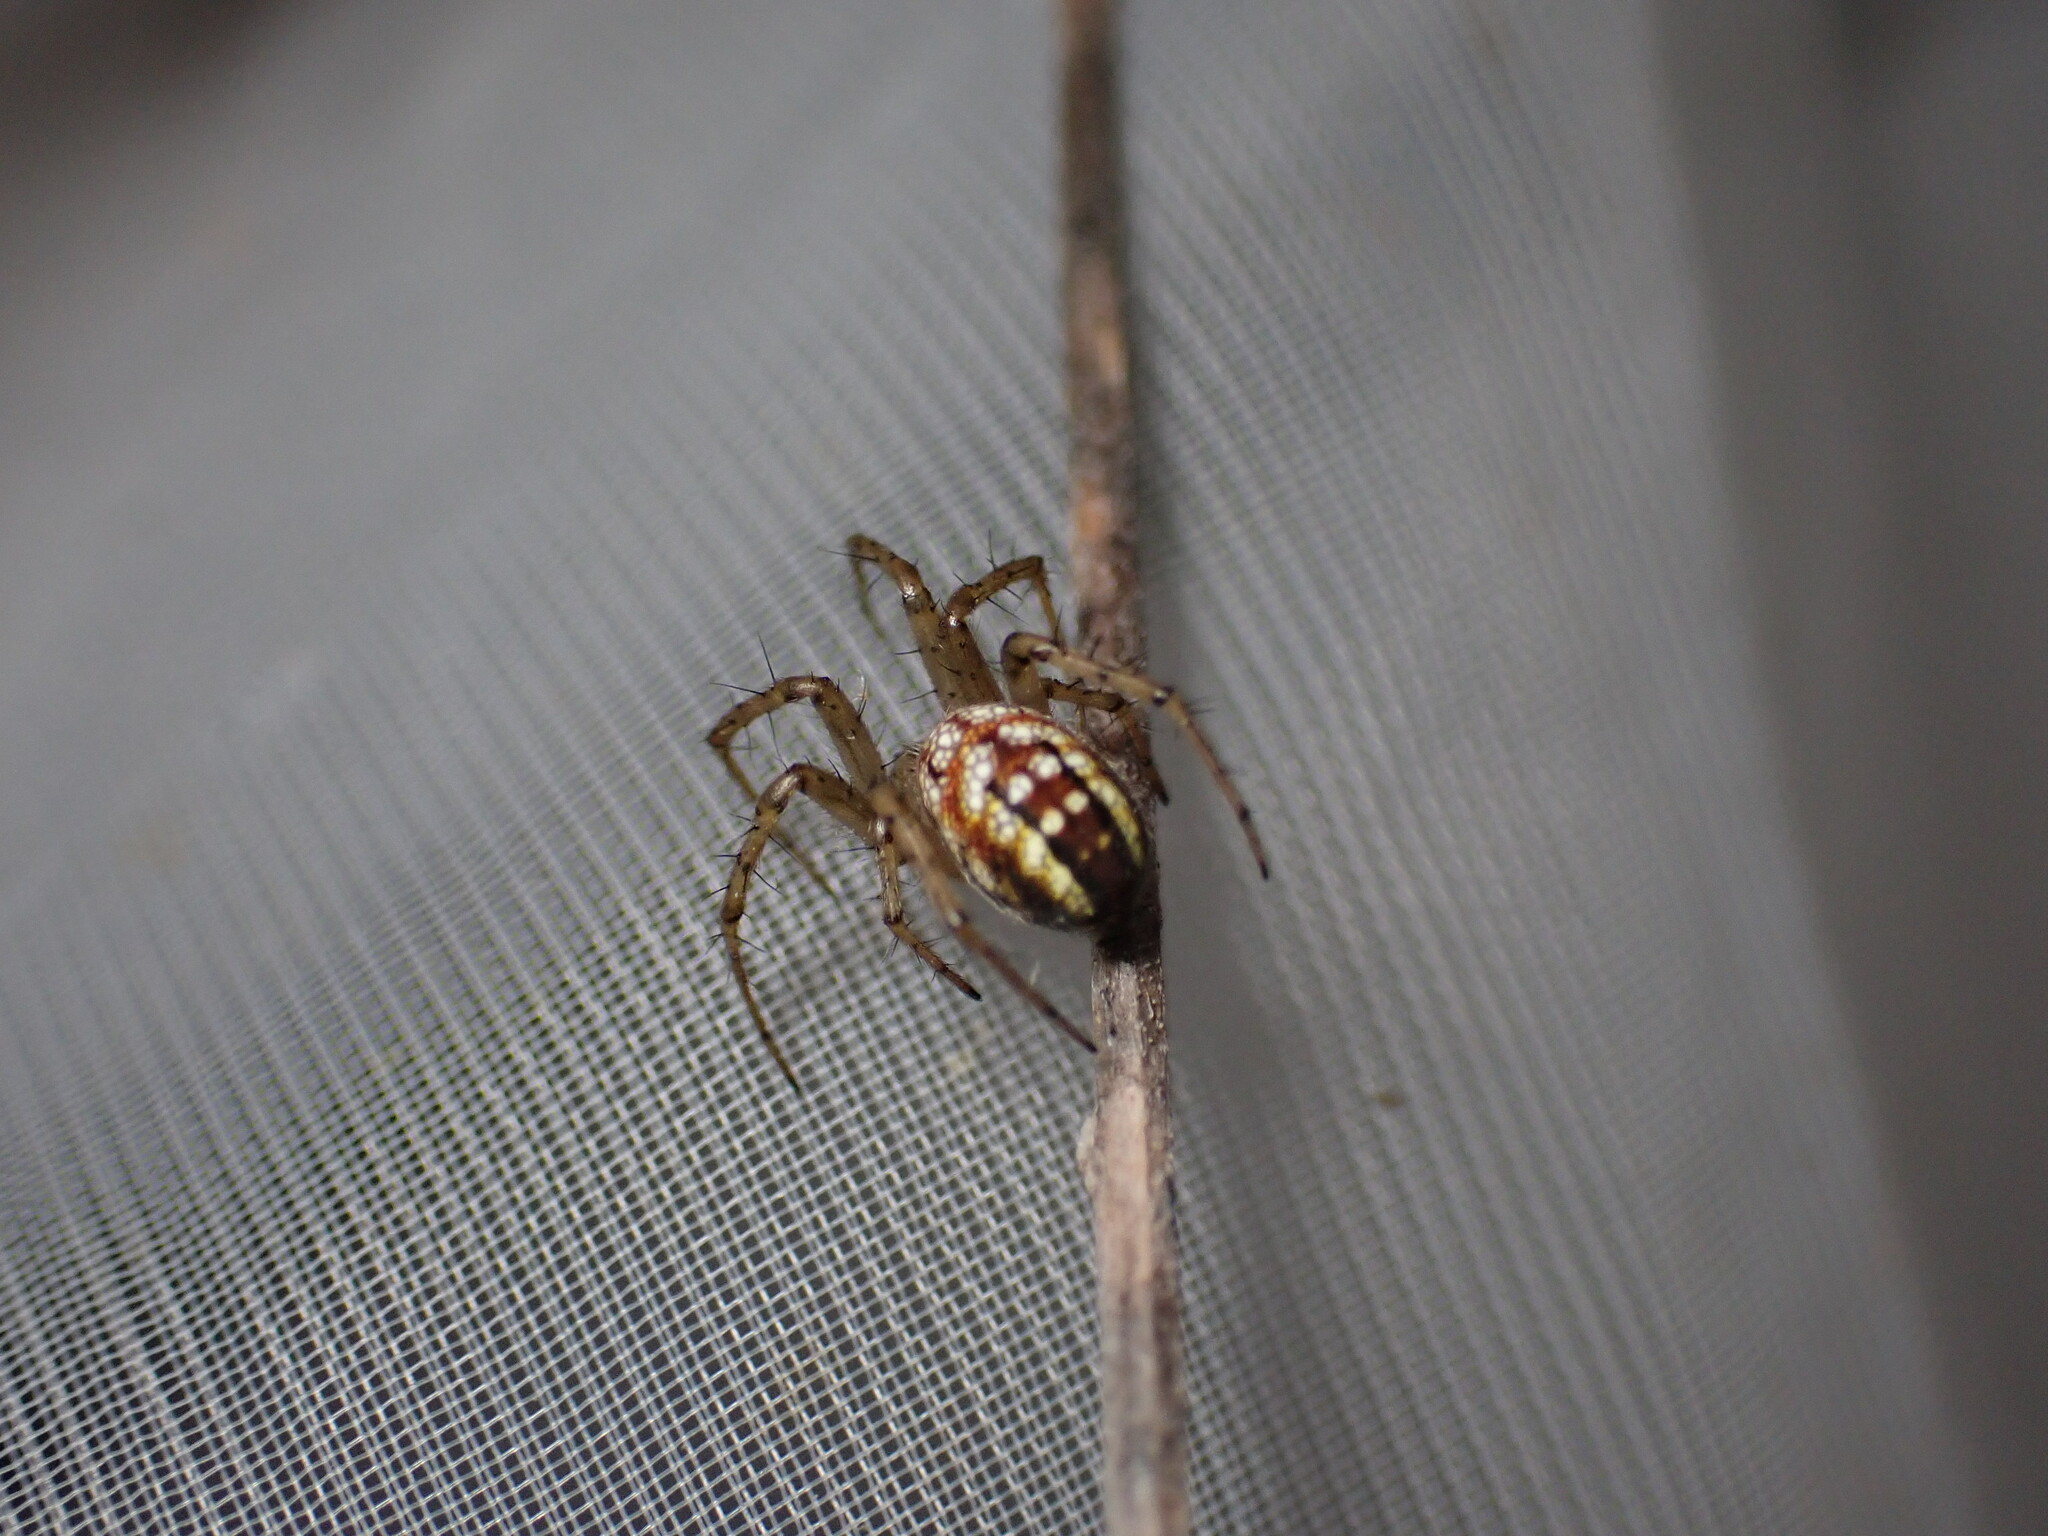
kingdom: Animalia
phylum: Arthropoda
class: Arachnida
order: Araneae
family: Araneidae
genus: Mangora
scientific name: Mangora acalypha
